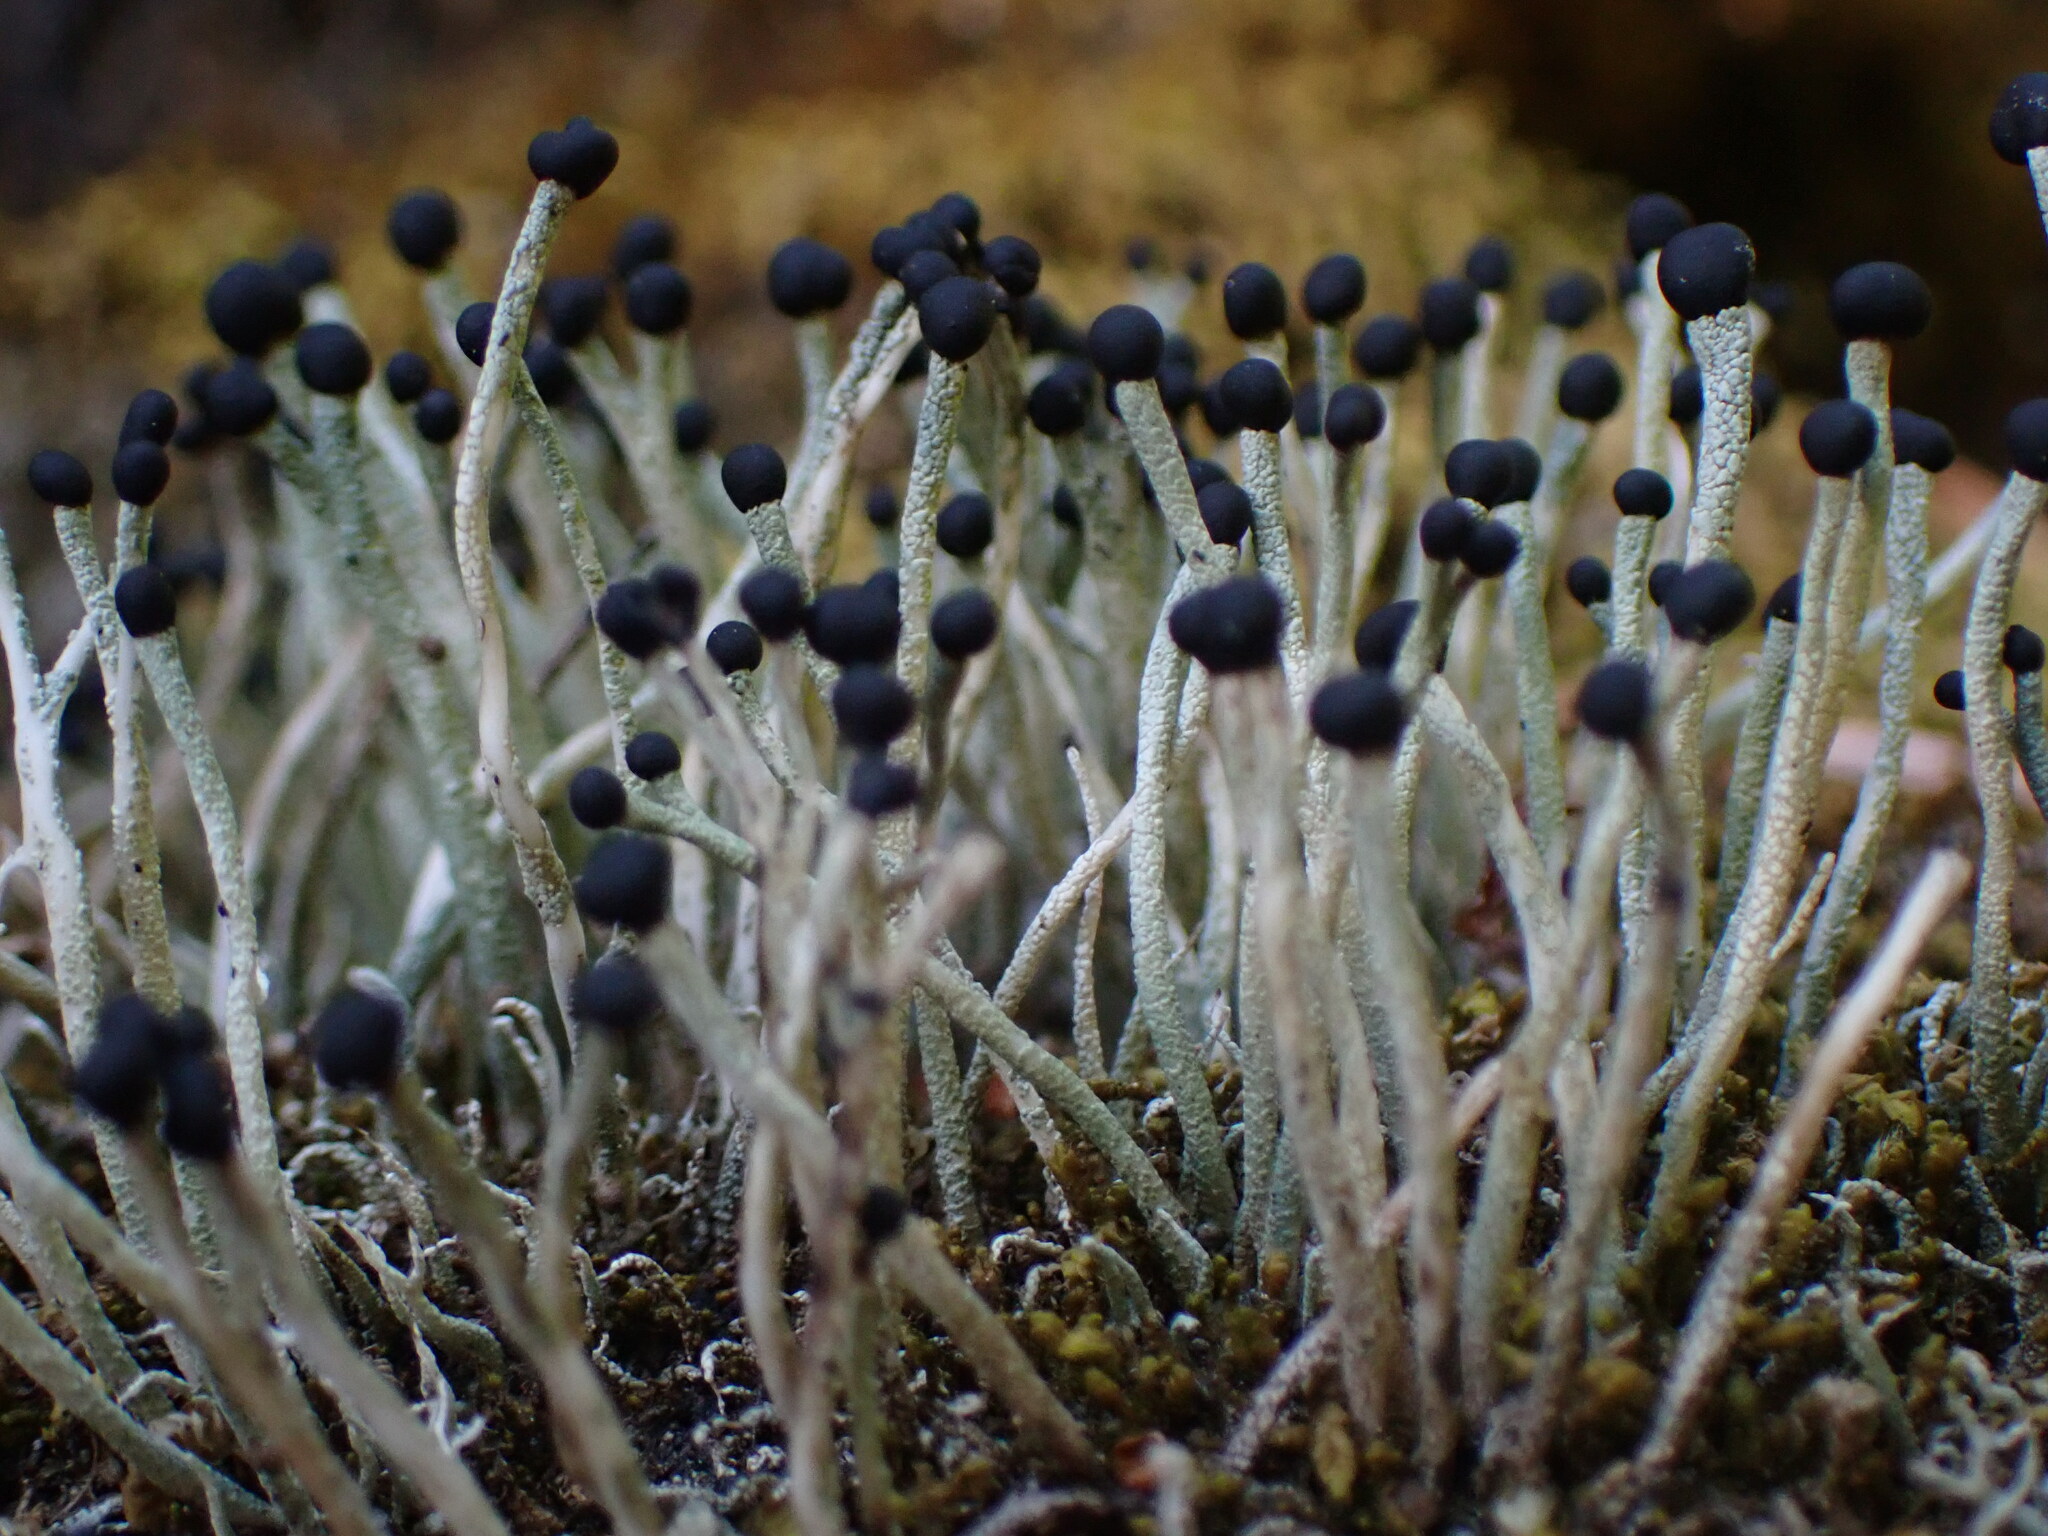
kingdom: Fungi
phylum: Ascomycota
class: Lecanoromycetes
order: Lecanorales
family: Cladoniaceae
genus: Pilophorus
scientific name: Pilophorus acicularis
